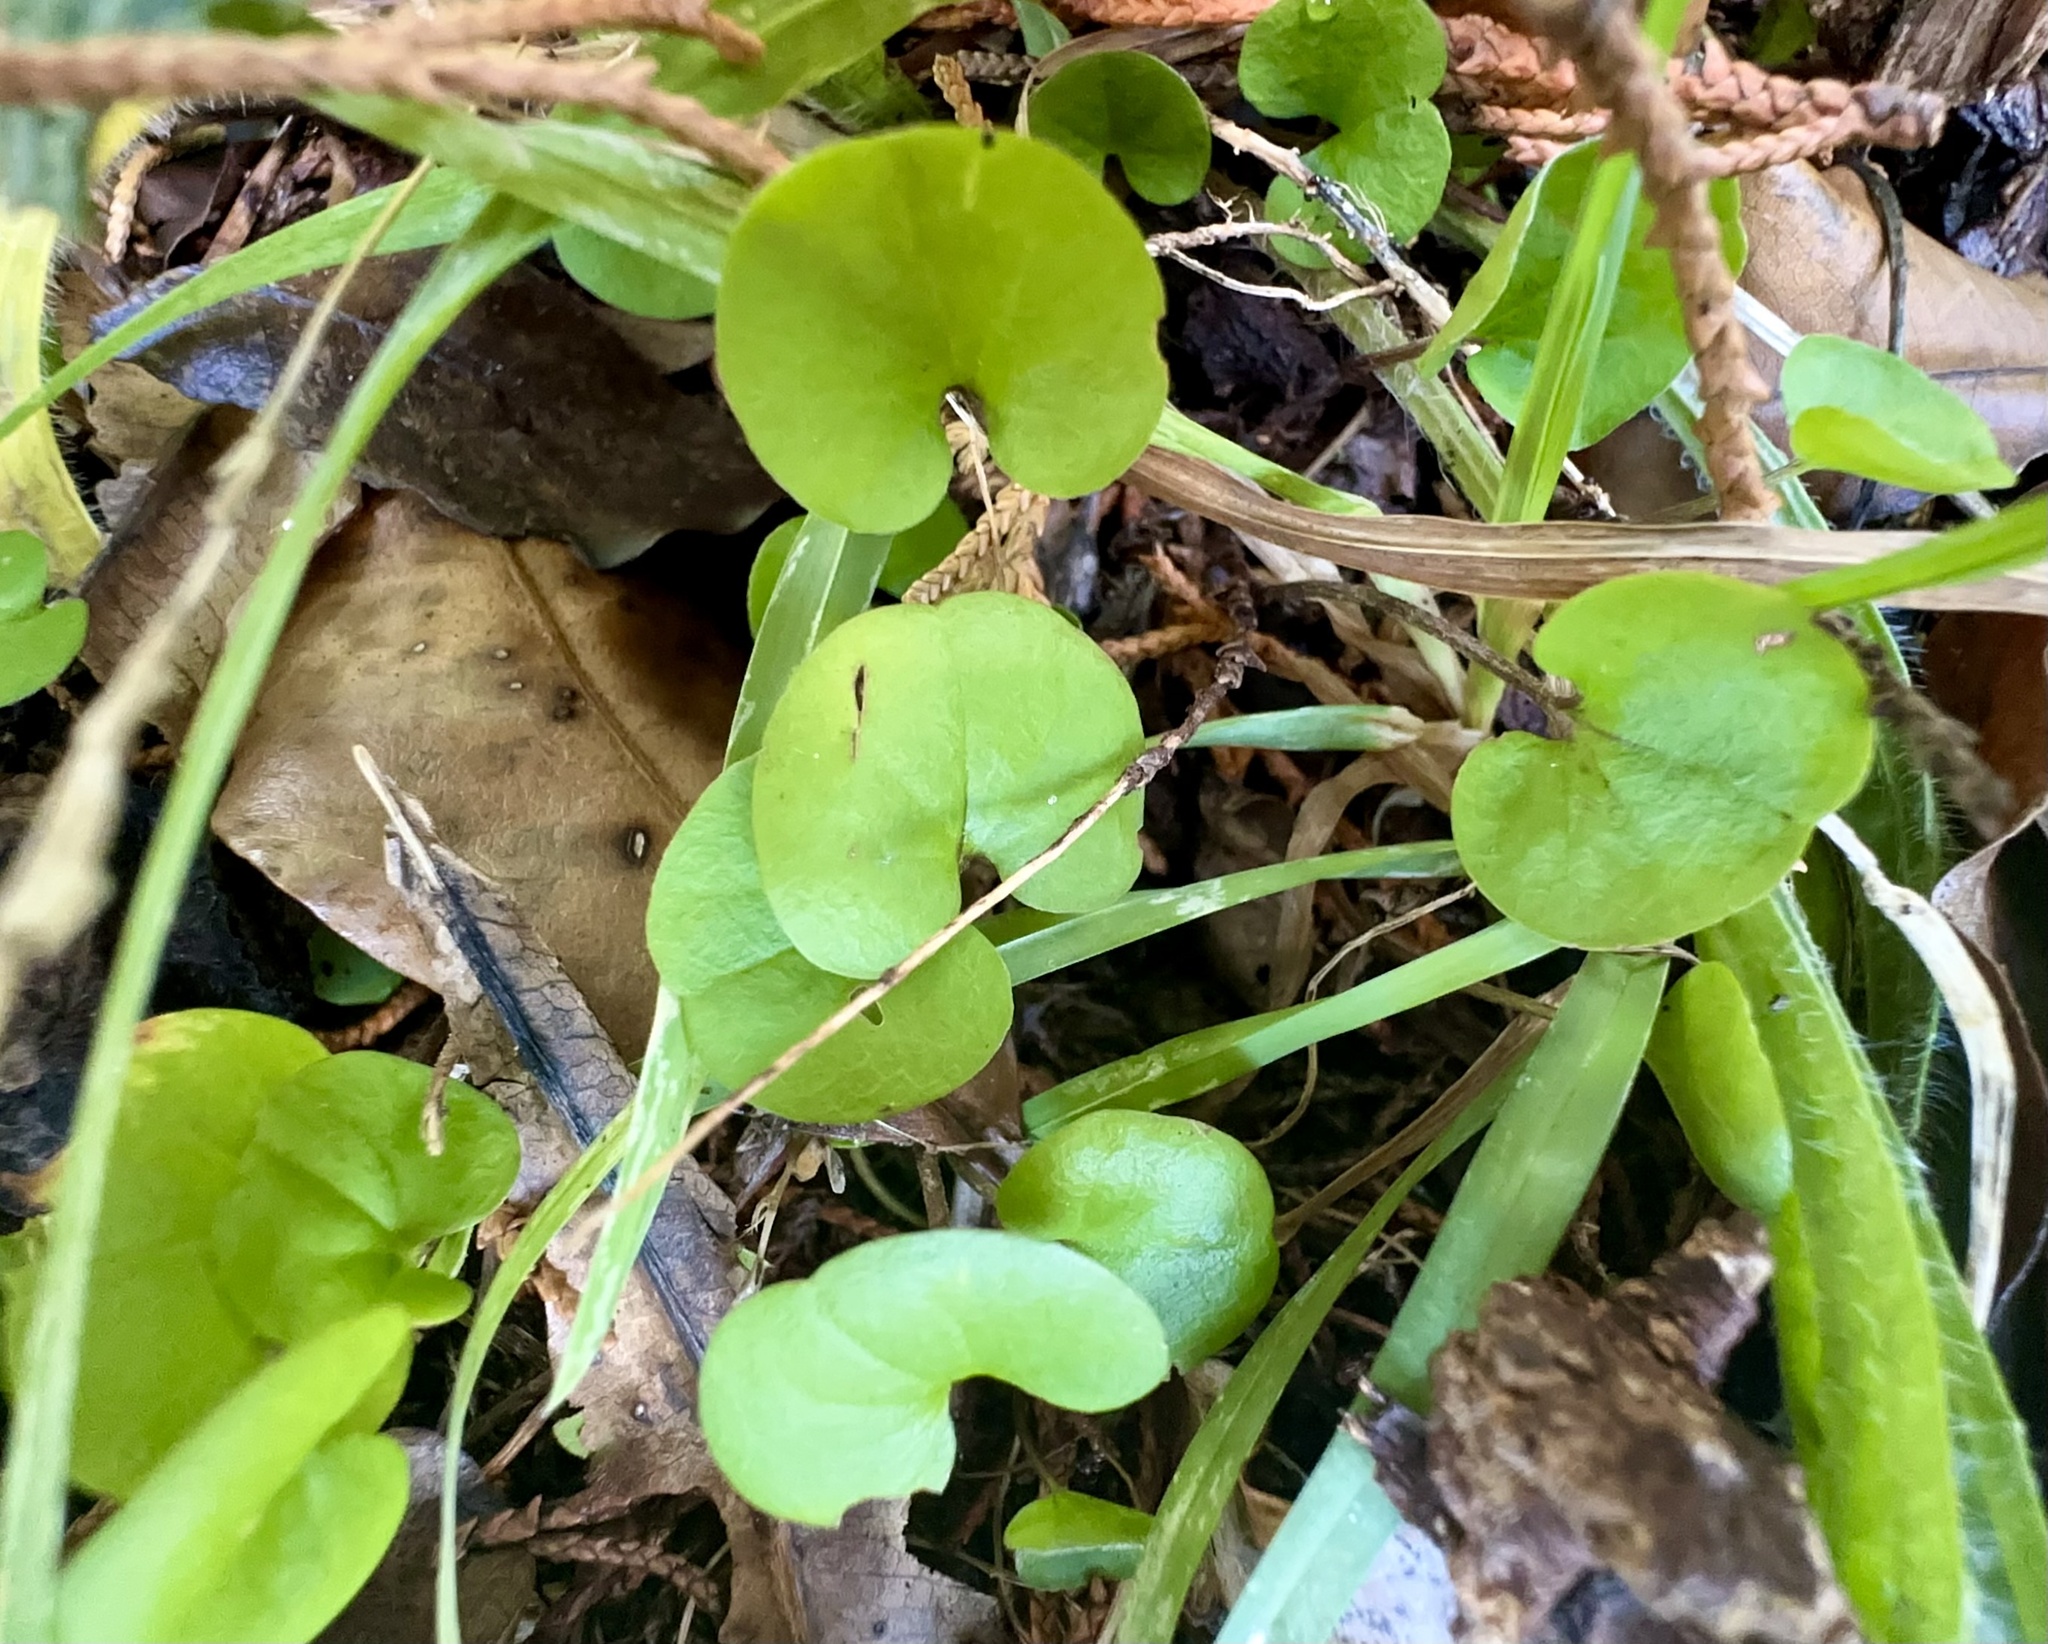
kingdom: Plantae
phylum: Tracheophyta
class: Magnoliopsida
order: Solanales
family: Convolvulaceae
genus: Dichondra
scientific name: Dichondra repens
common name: Kidneyweed
